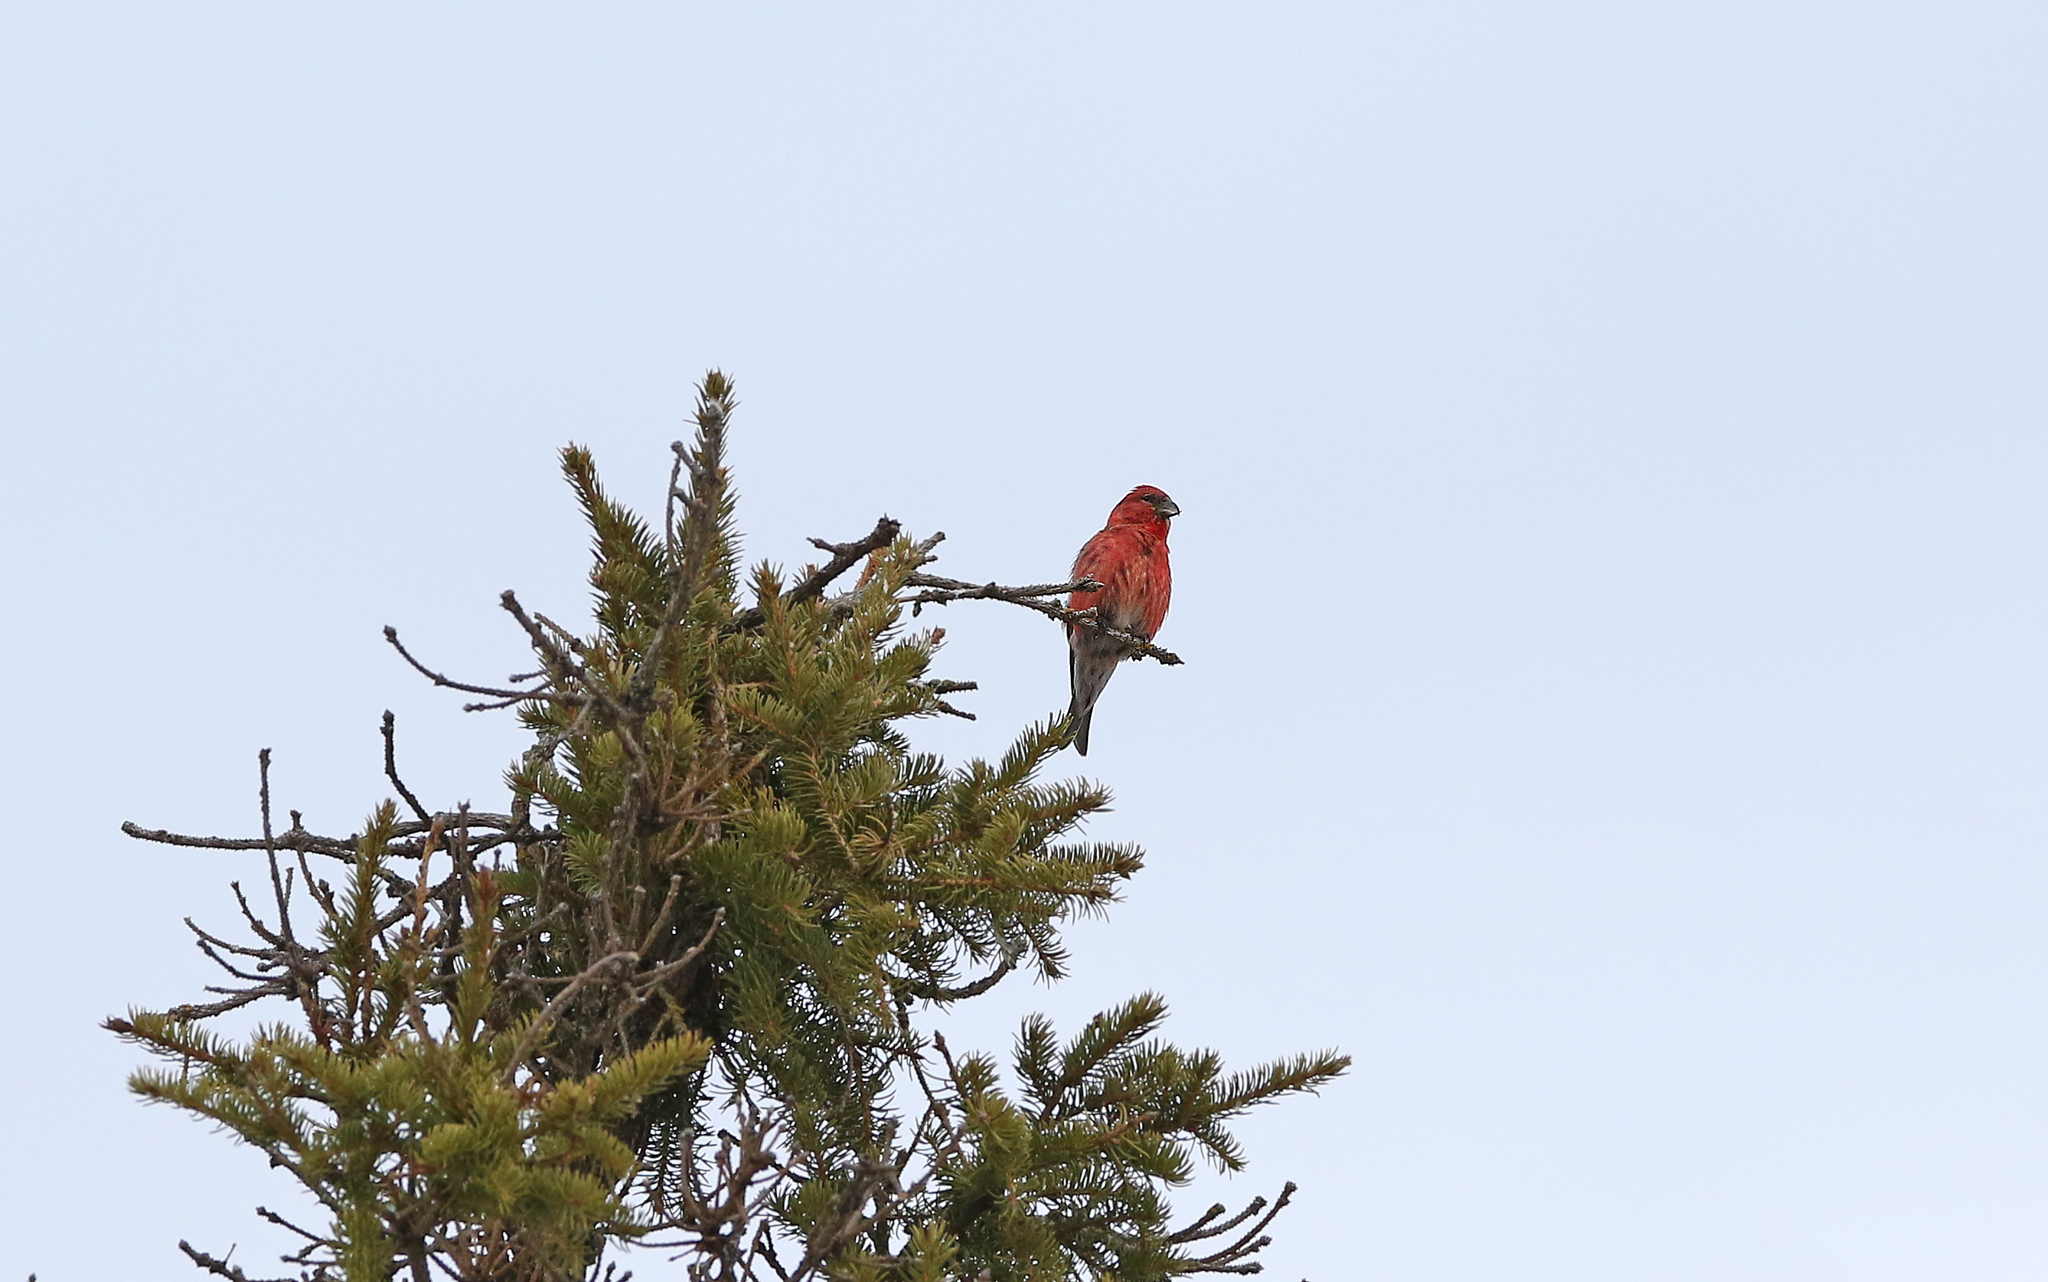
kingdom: Animalia
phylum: Chordata
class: Aves
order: Passeriformes
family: Fringillidae
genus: Loxia
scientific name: Loxia leucoptera
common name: Two-barred crossbill
